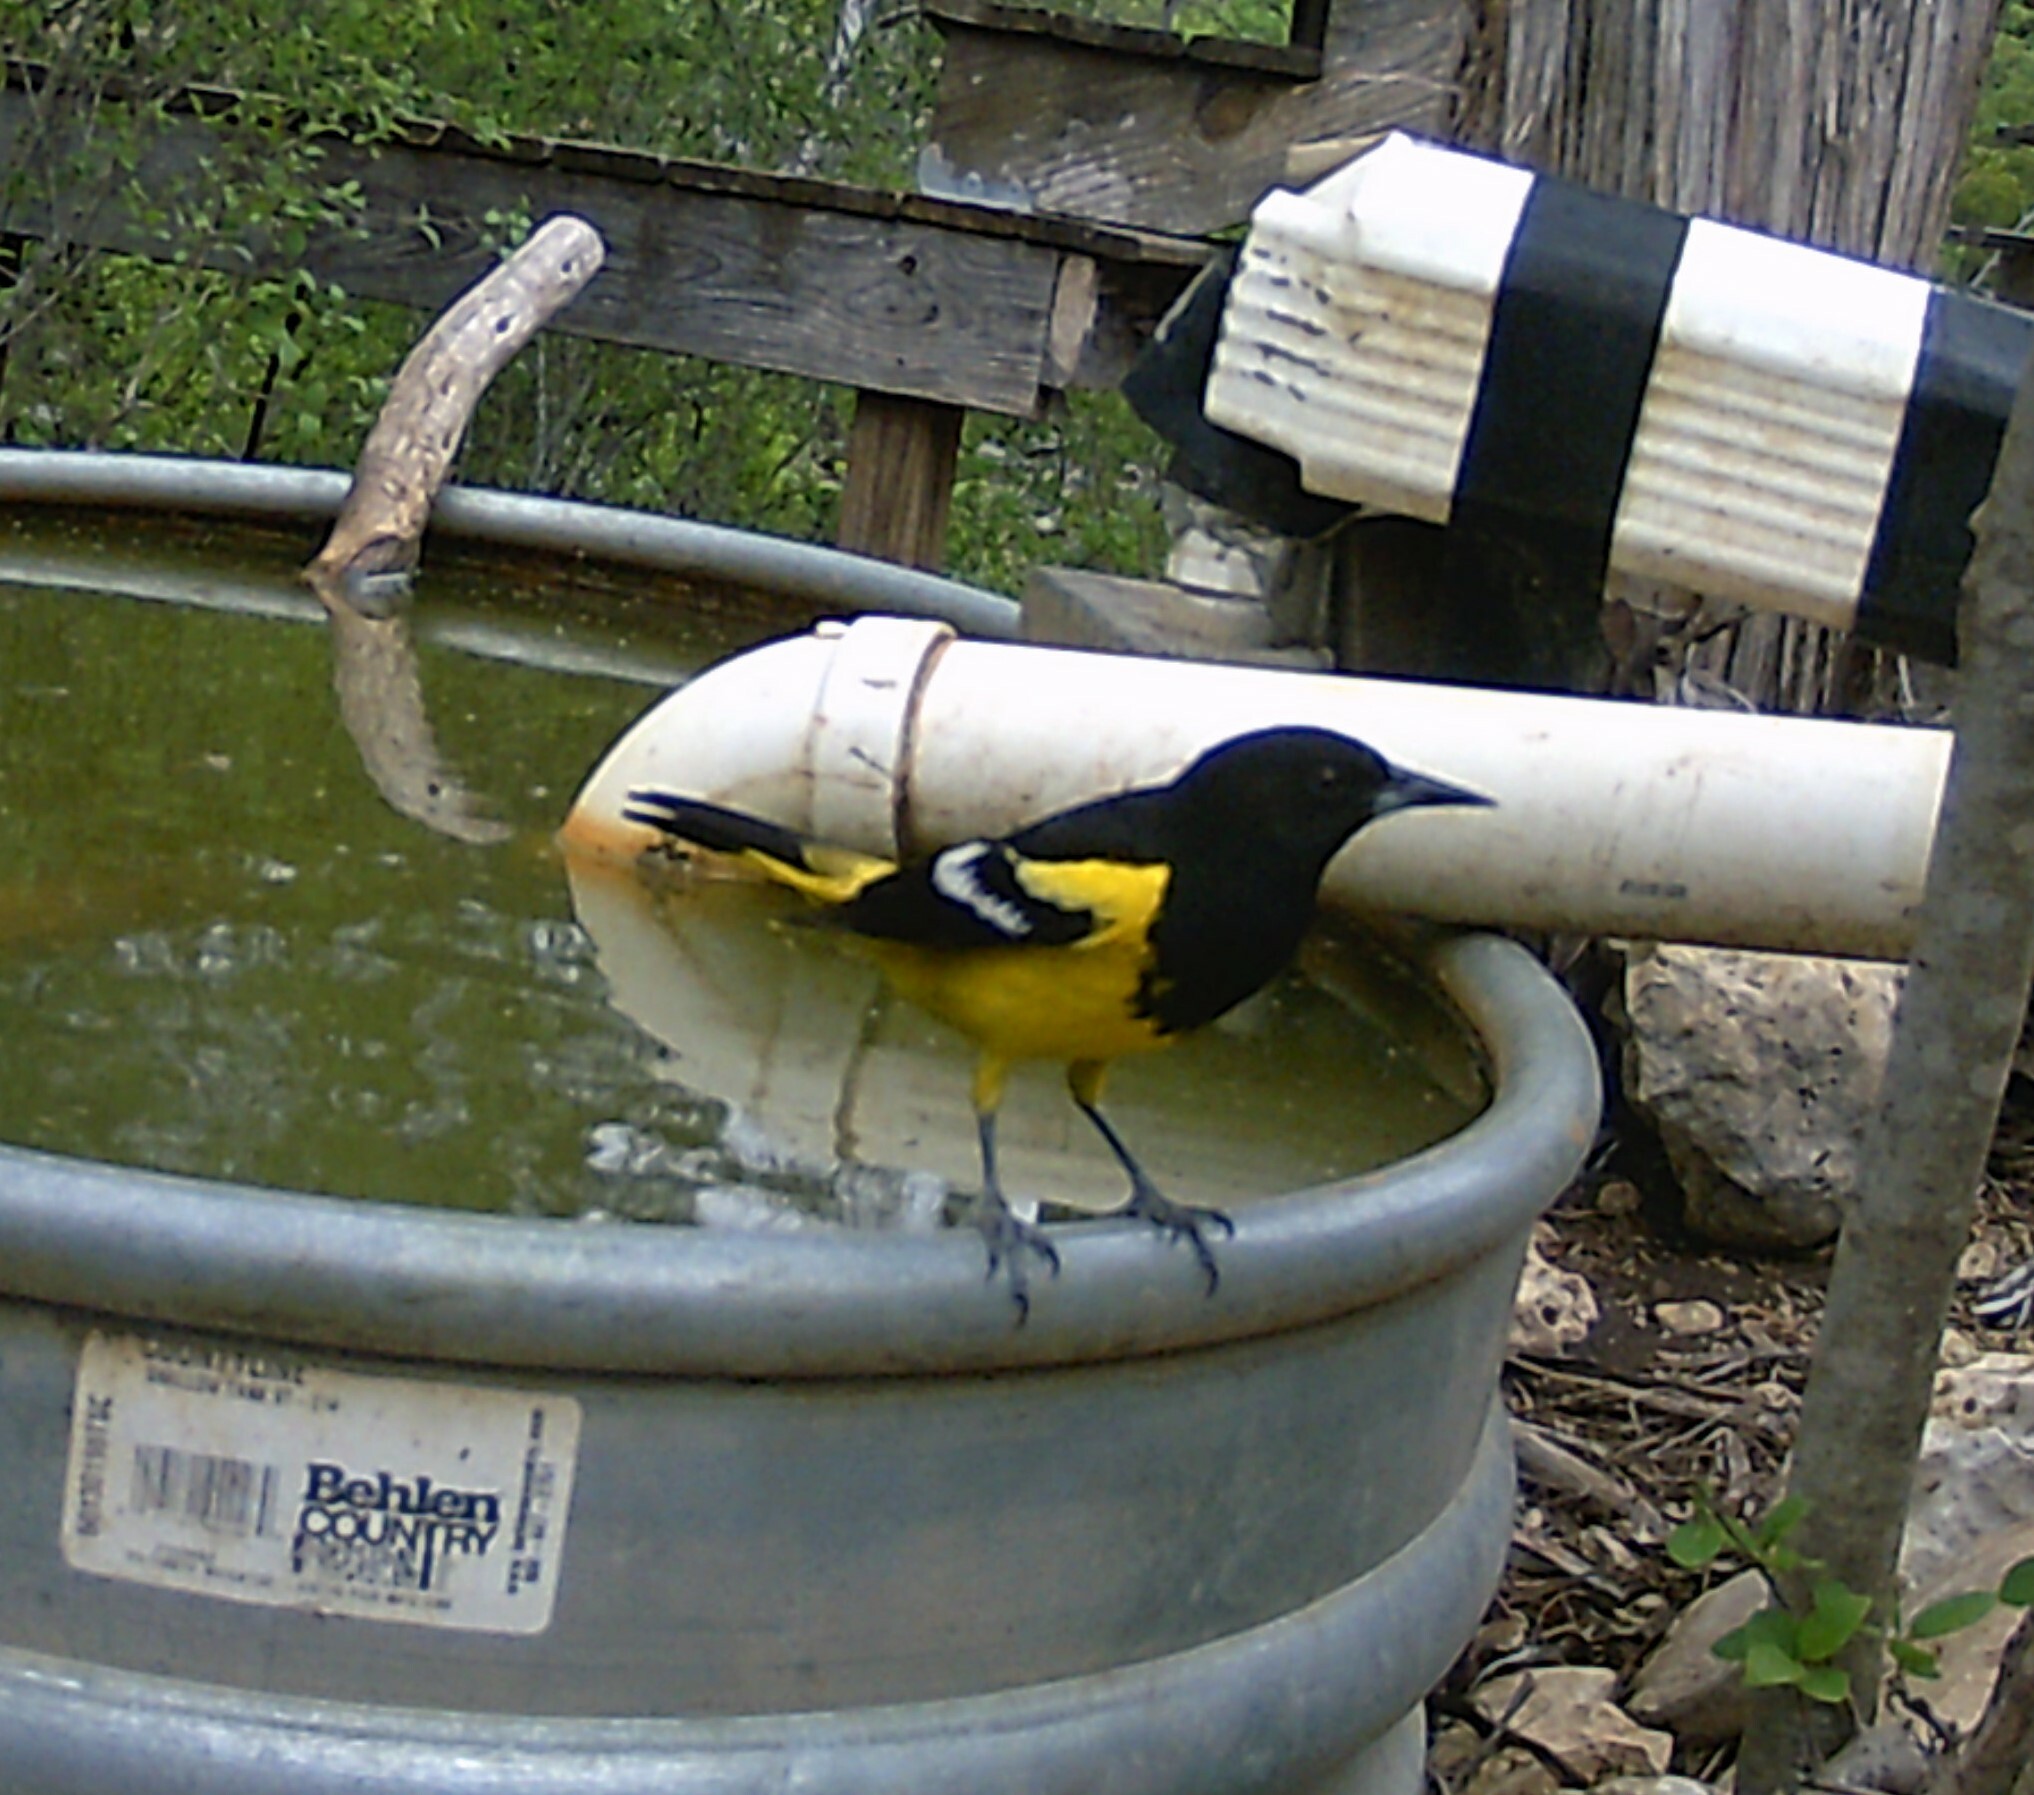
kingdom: Animalia
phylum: Chordata
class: Aves
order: Passeriformes
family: Icteridae
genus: Icterus
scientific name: Icterus parisorum
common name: Scott's oriole
